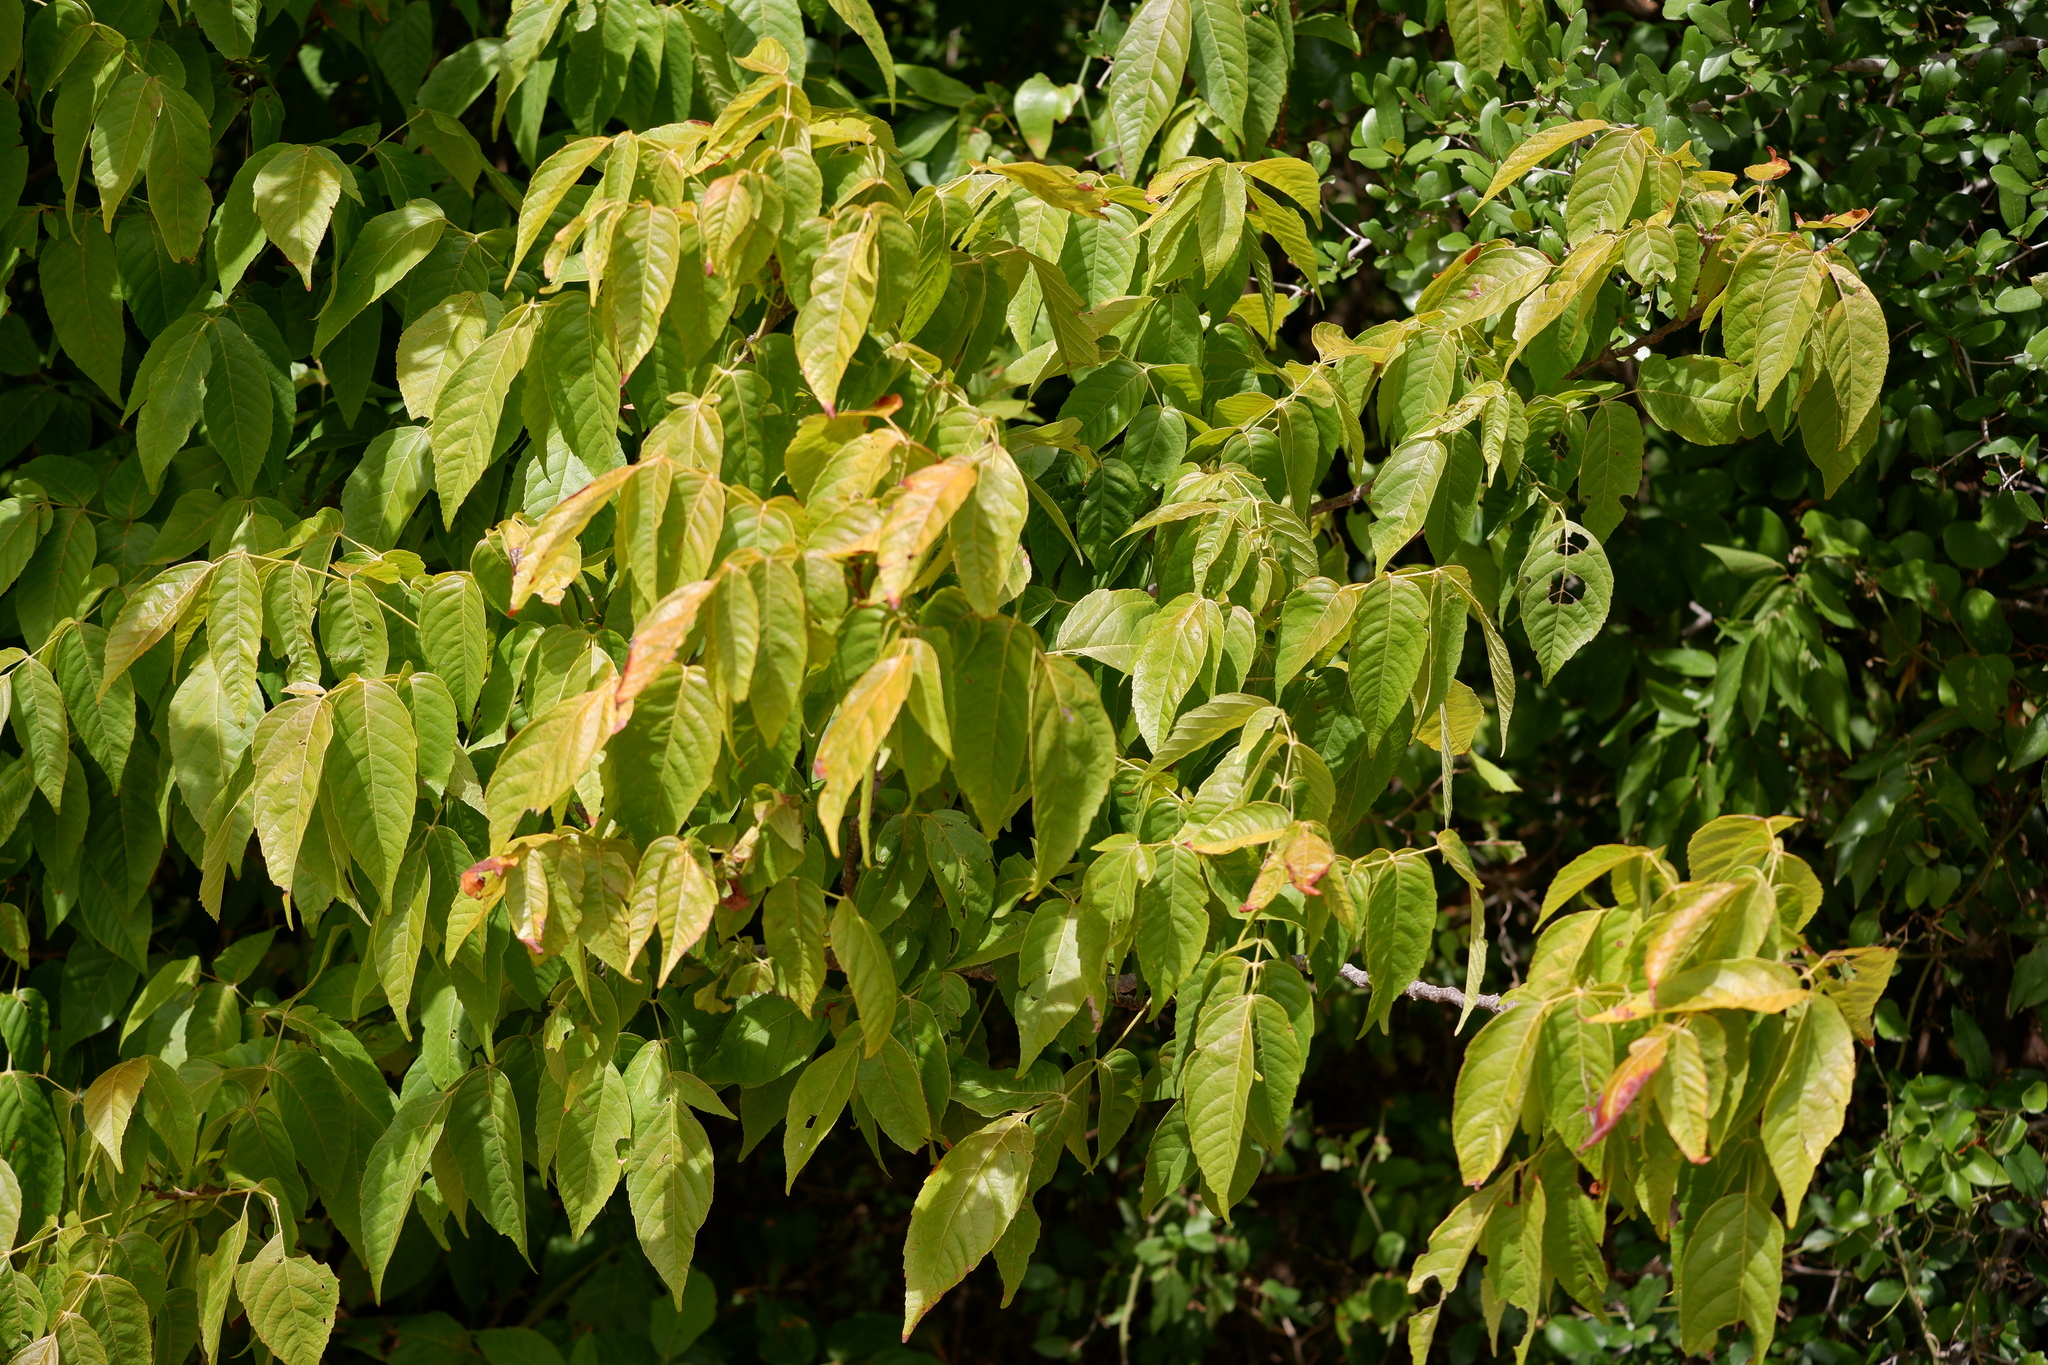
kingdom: Plantae
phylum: Tracheophyta
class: Magnoliopsida
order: Sapindales
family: Sapindaceae
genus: Ungnadia
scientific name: Ungnadia speciosa
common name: Texas-buckeye
